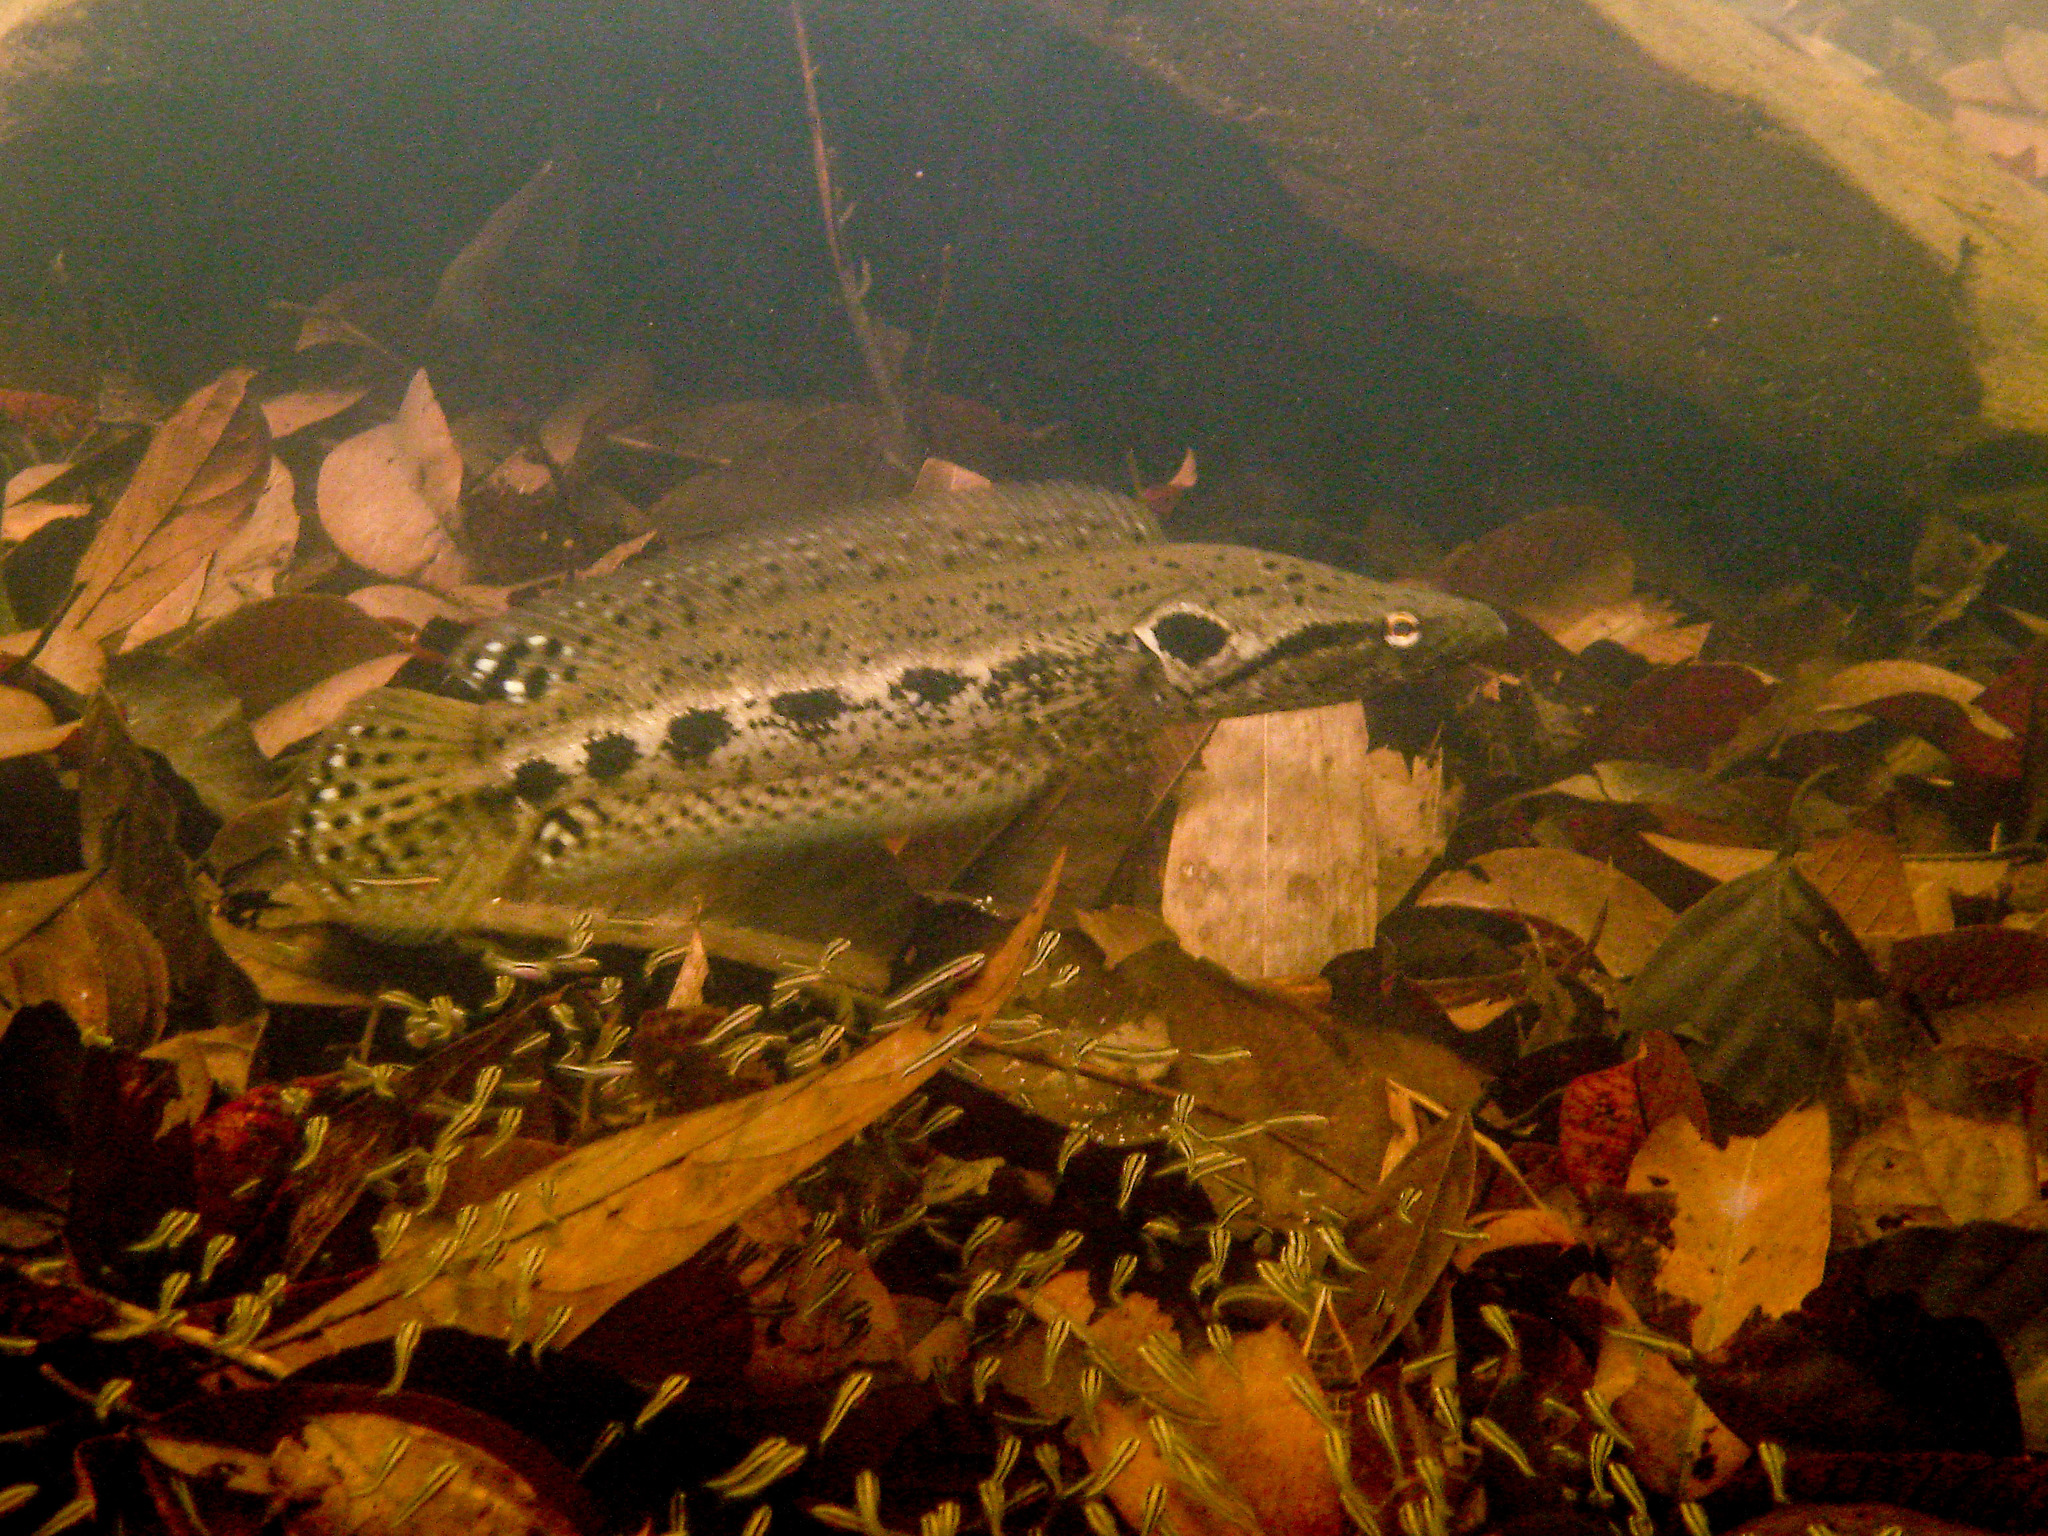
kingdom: Animalia
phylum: Chordata
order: Perciformes
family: Channidae
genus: Channa
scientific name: Channa lucius
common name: Forest snakehead
